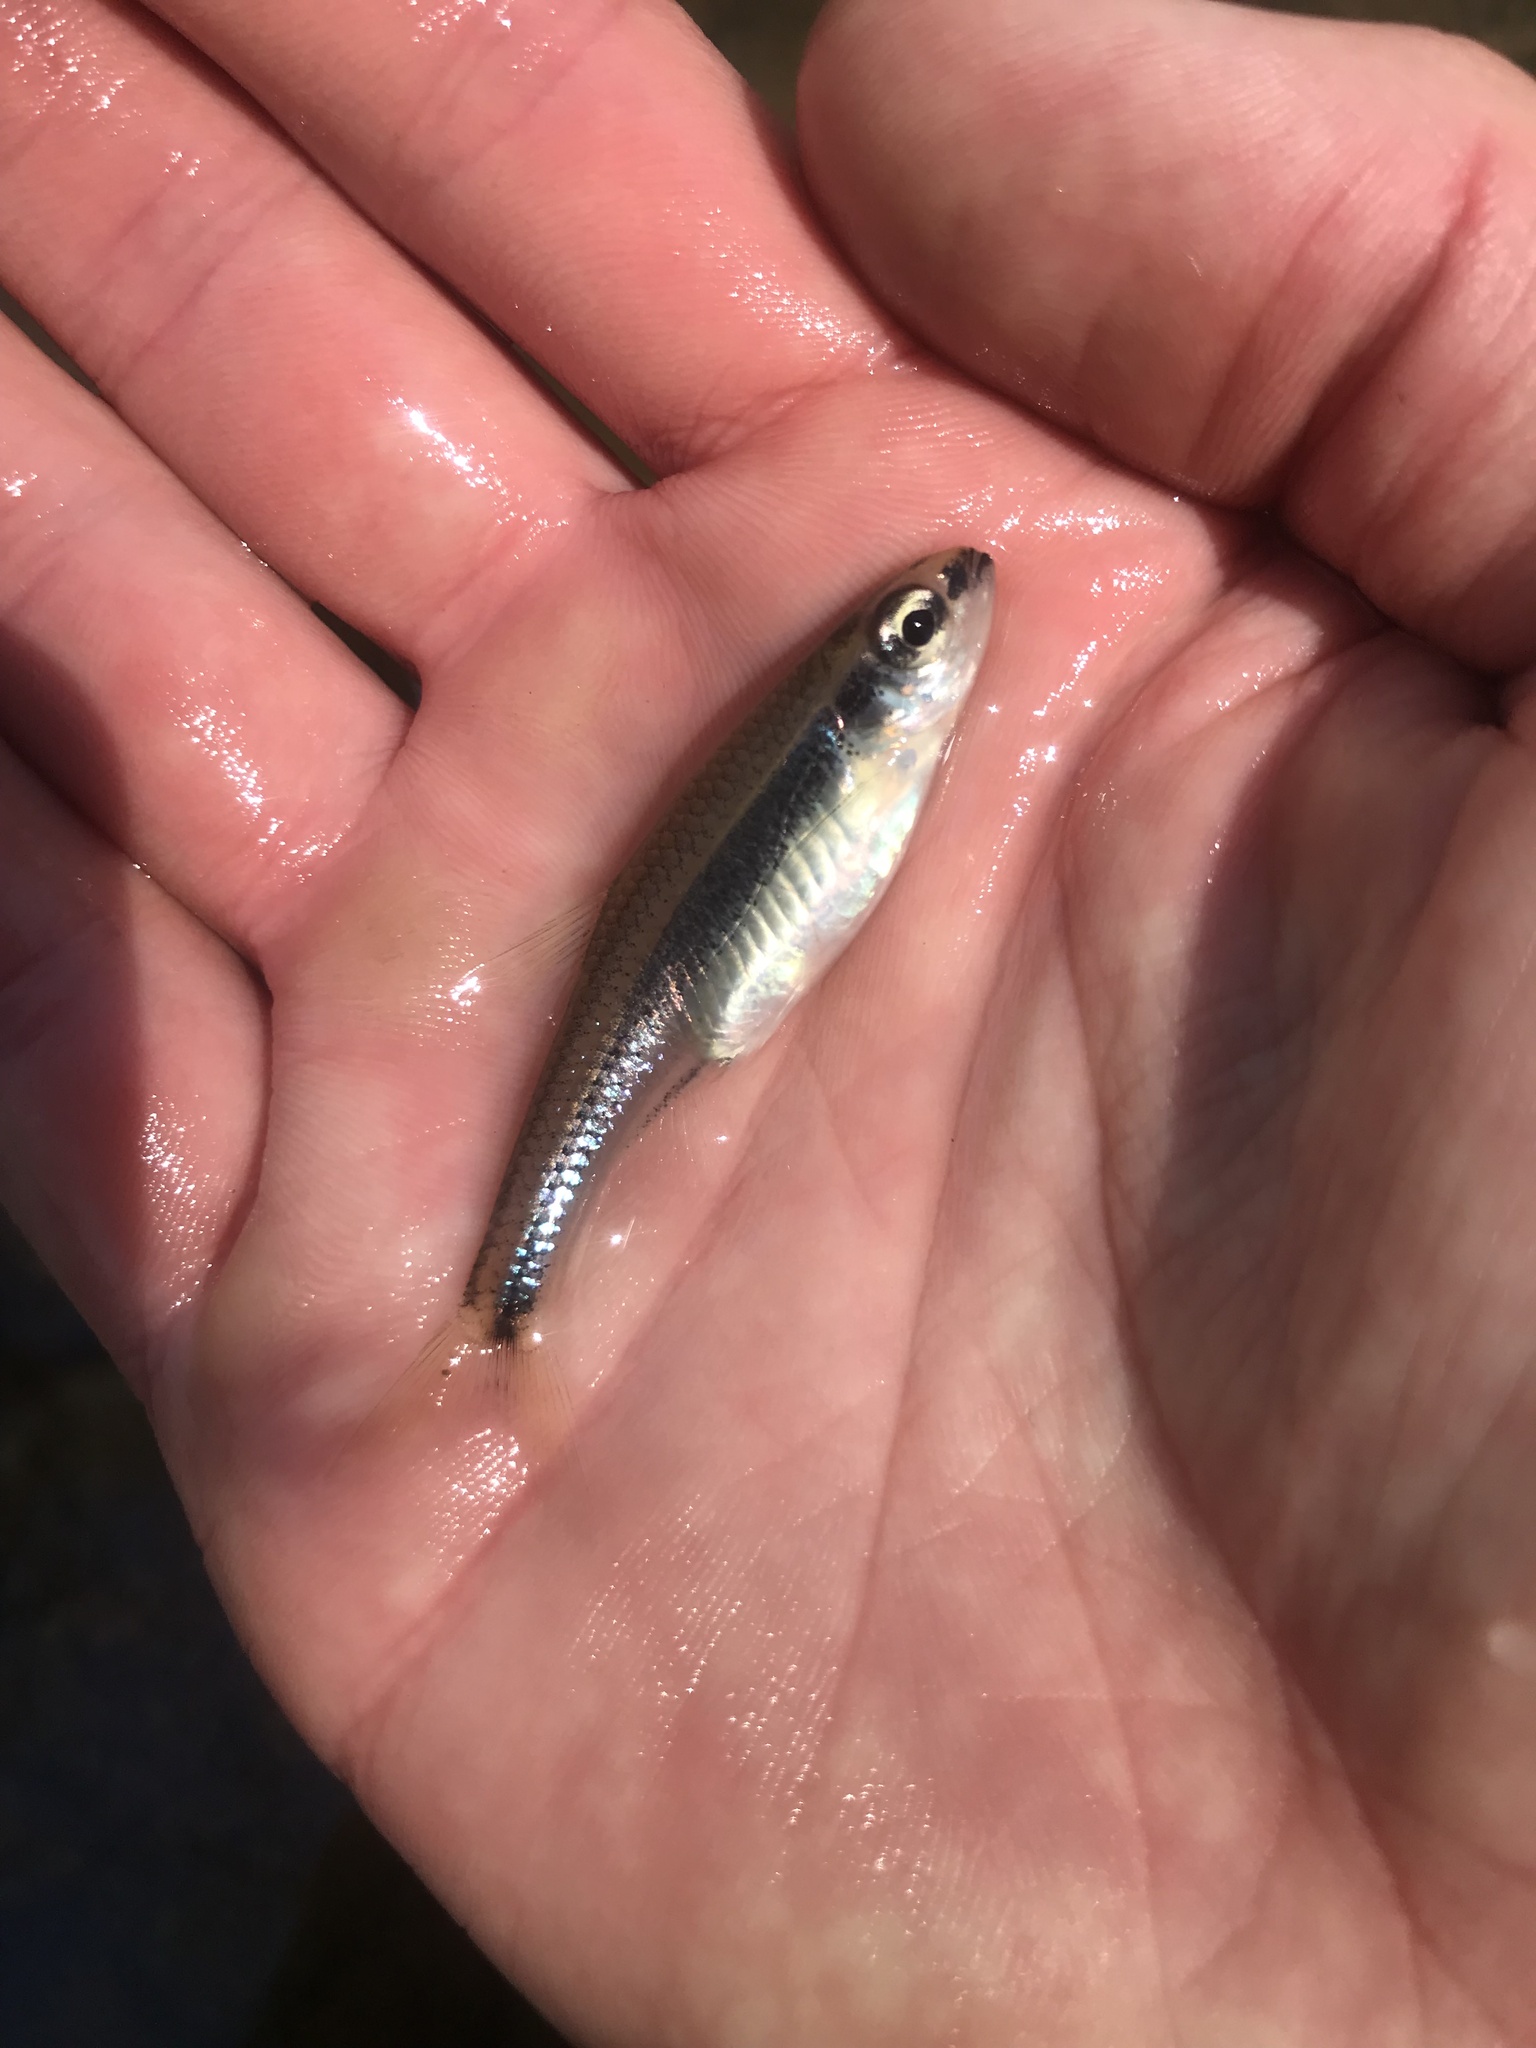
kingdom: Animalia
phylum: Chordata
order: Cypriniformes
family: Cyprinidae
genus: Notropis
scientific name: Notropis
